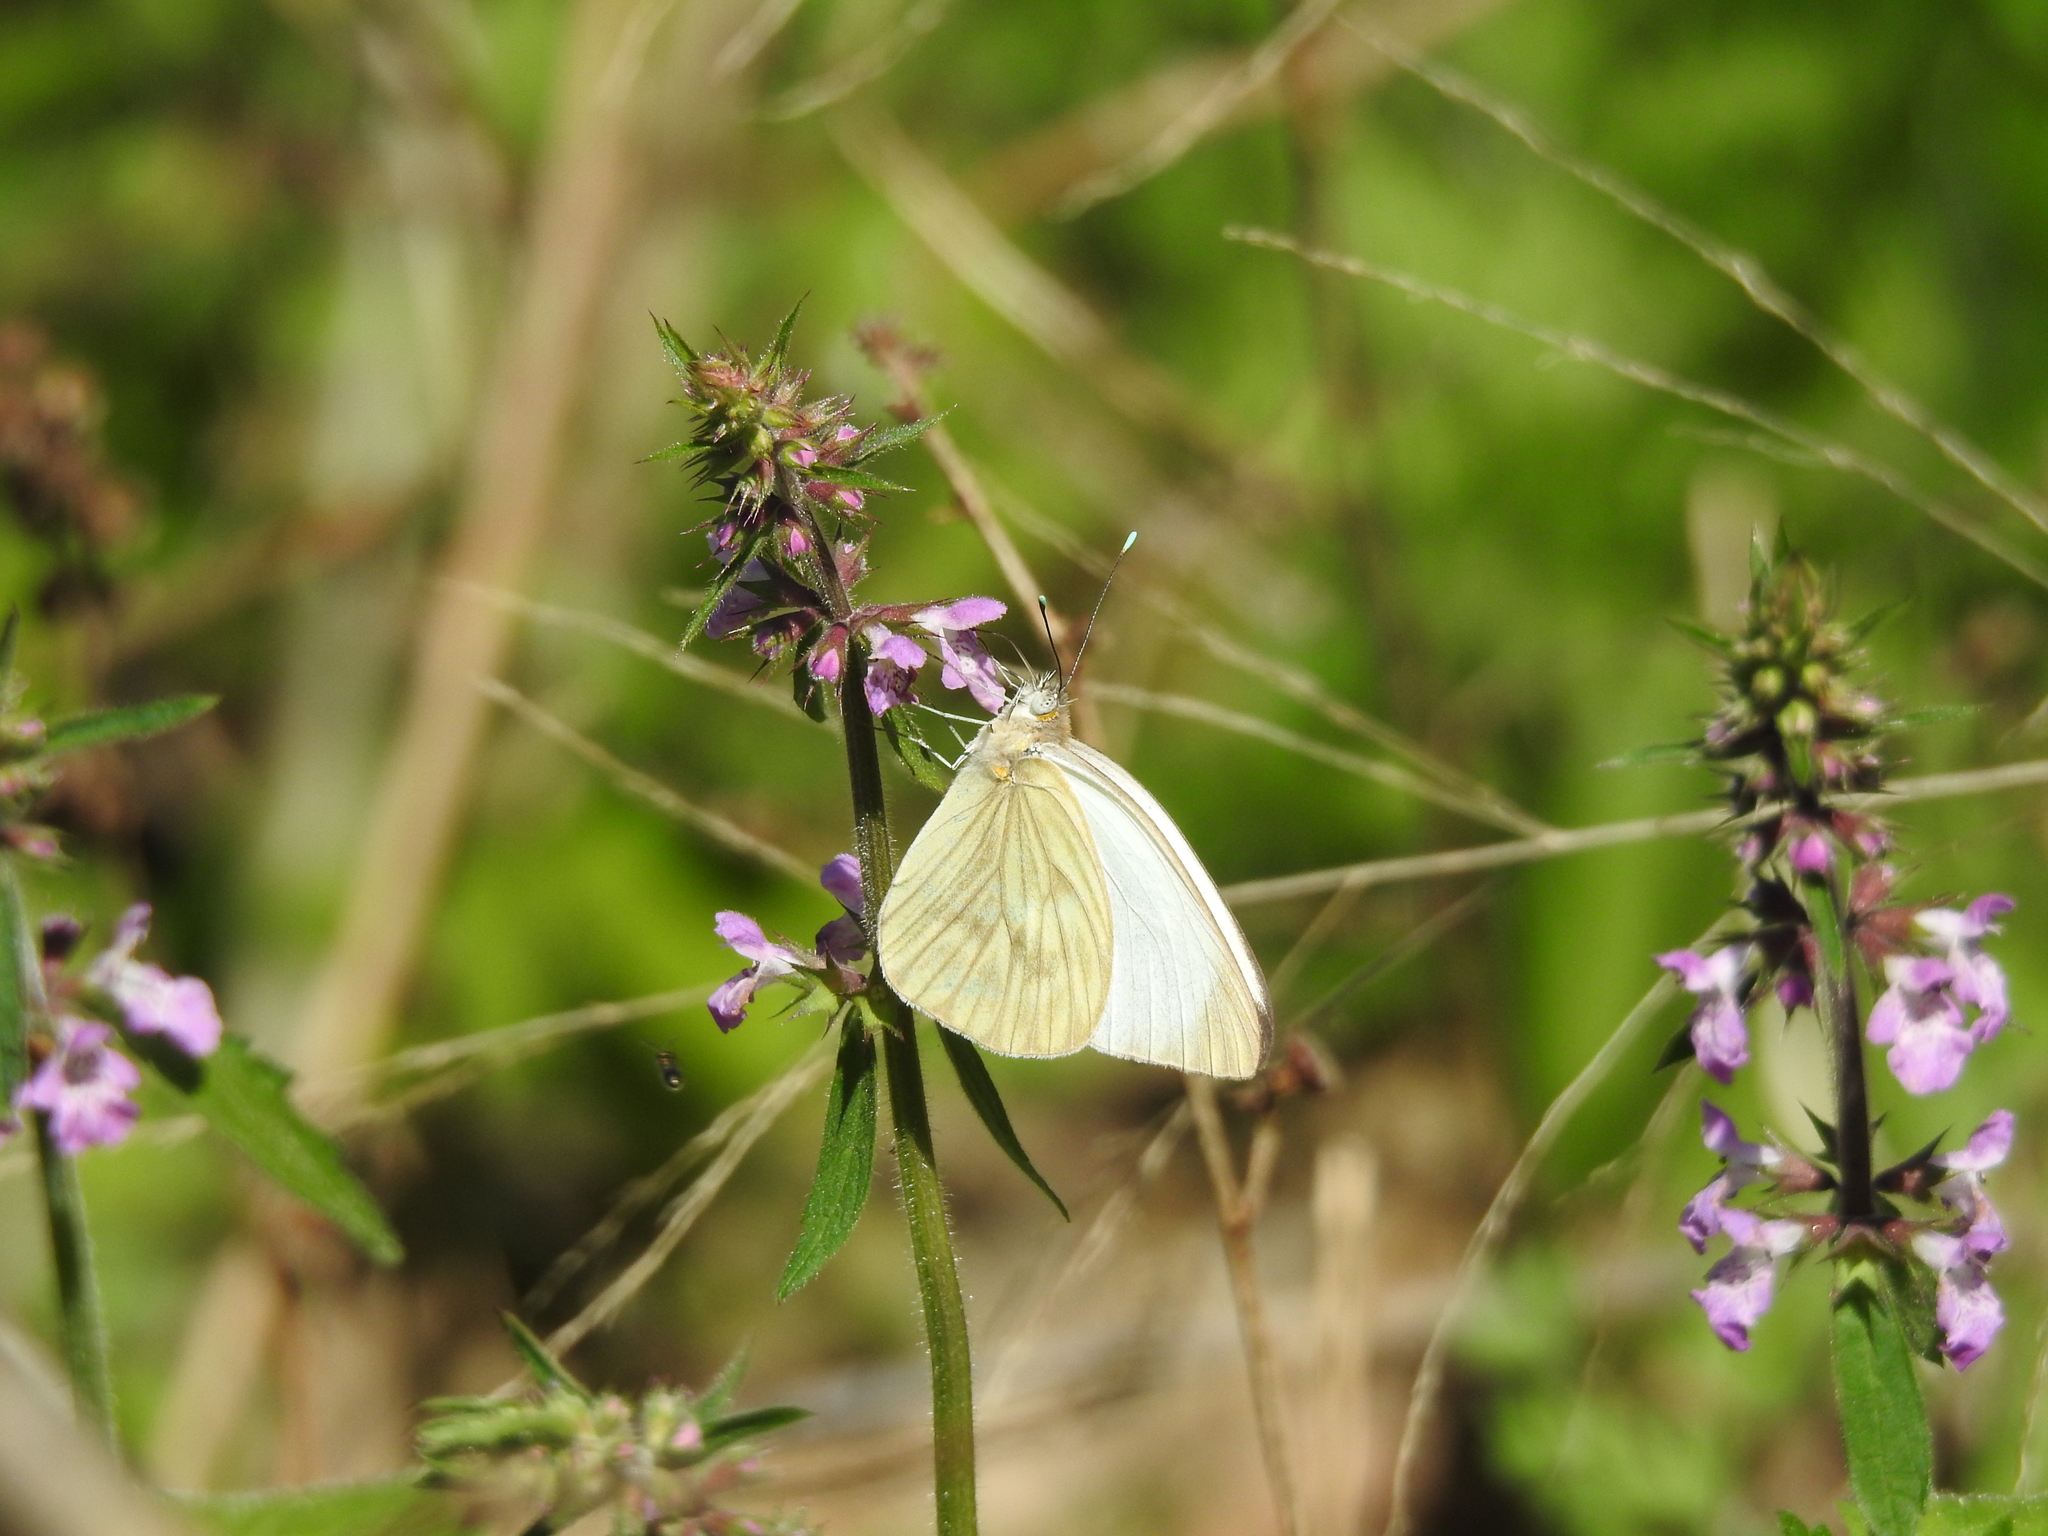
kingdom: Animalia
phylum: Arthropoda
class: Insecta
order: Lepidoptera
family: Pieridae
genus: Ascia
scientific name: Ascia monuste
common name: Great southern white
